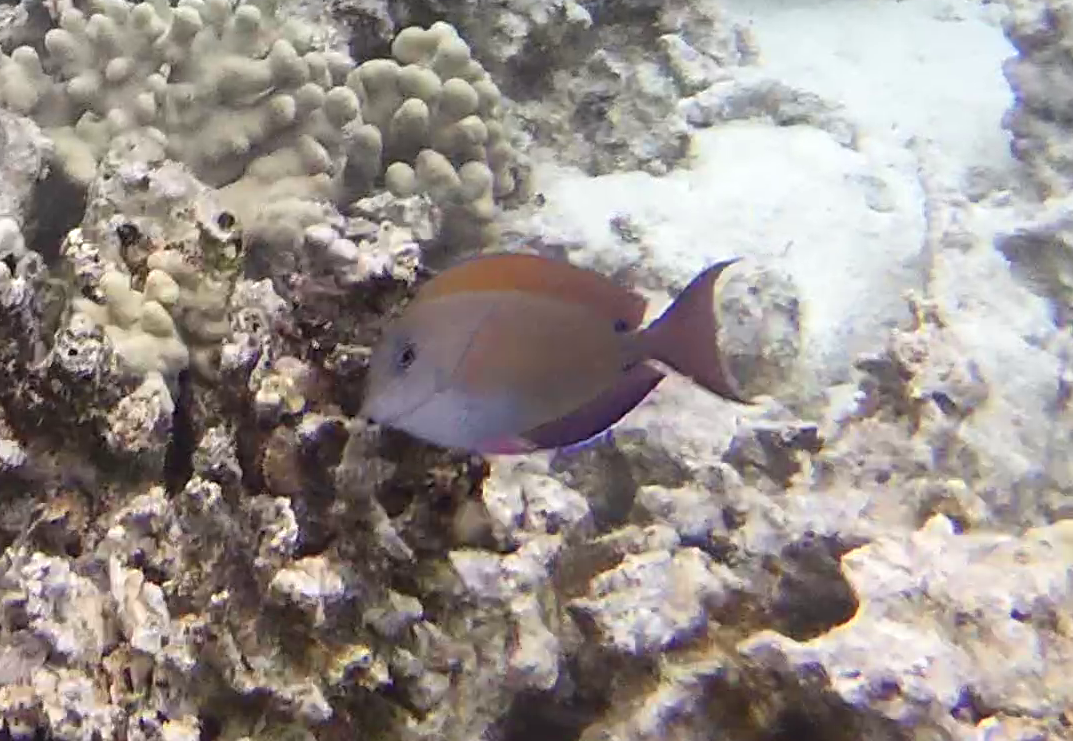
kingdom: Animalia
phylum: Chordata
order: Perciformes
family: Acanthuridae
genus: Acanthurus
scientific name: Acanthurus nigrofuscus
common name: Blackspot surgeonfish
